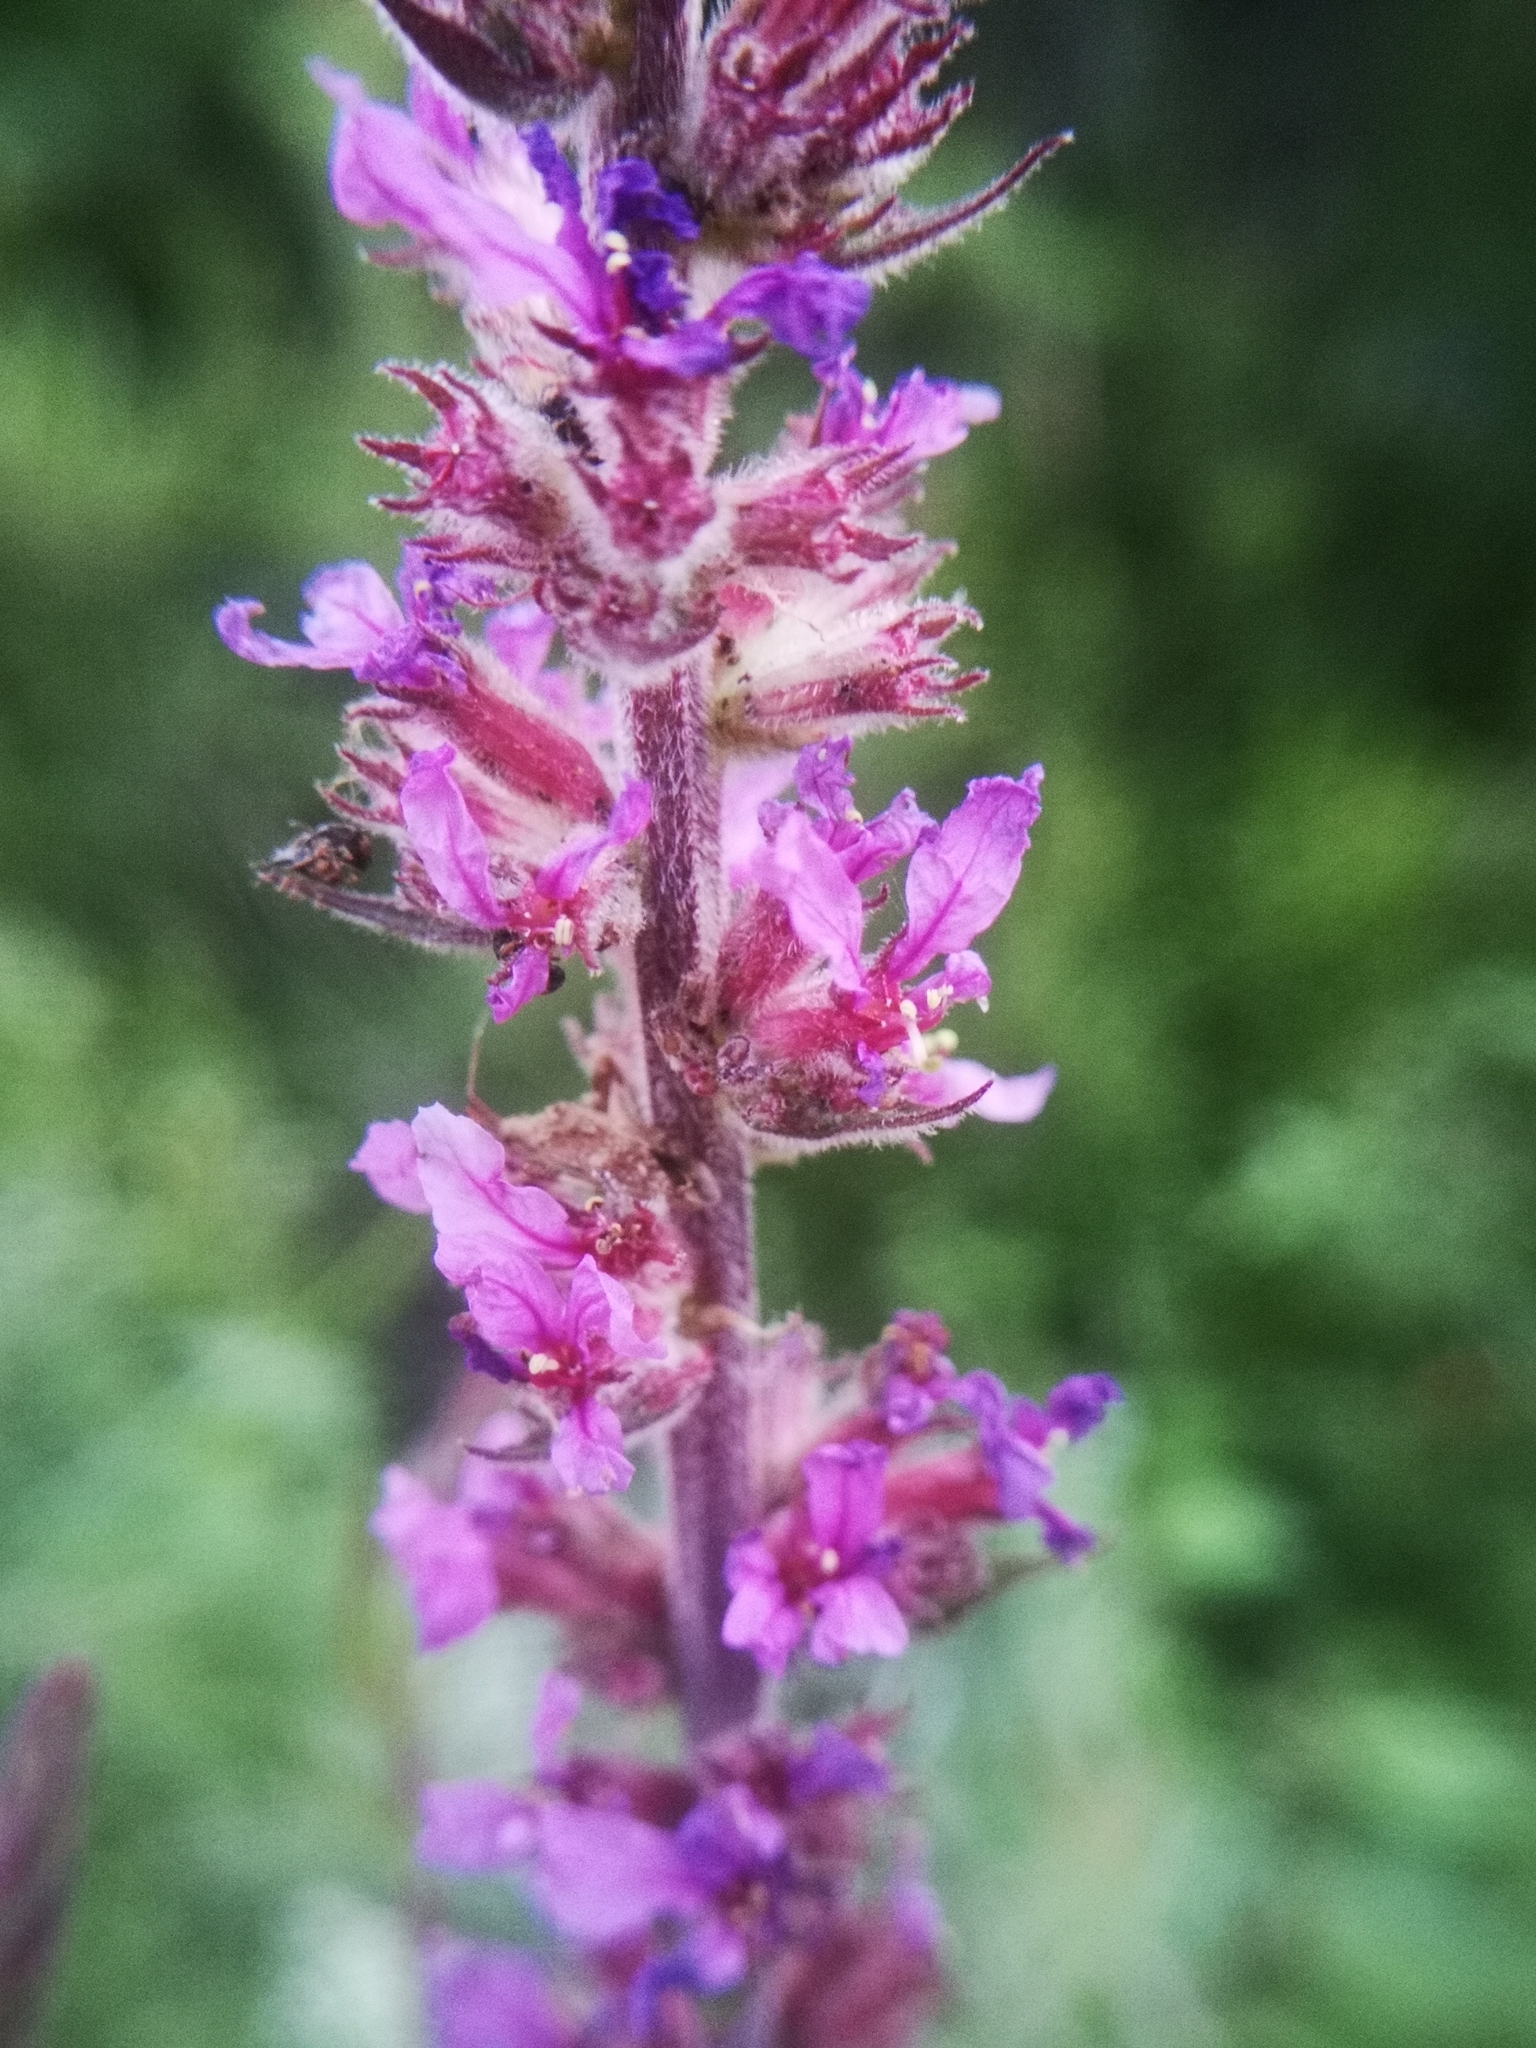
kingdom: Plantae
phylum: Tracheophyta
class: Magnoliopsida
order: Myrtales
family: Lythraceae
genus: Lythrum
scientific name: Lythrum salicaria
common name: Purple loosestrife
